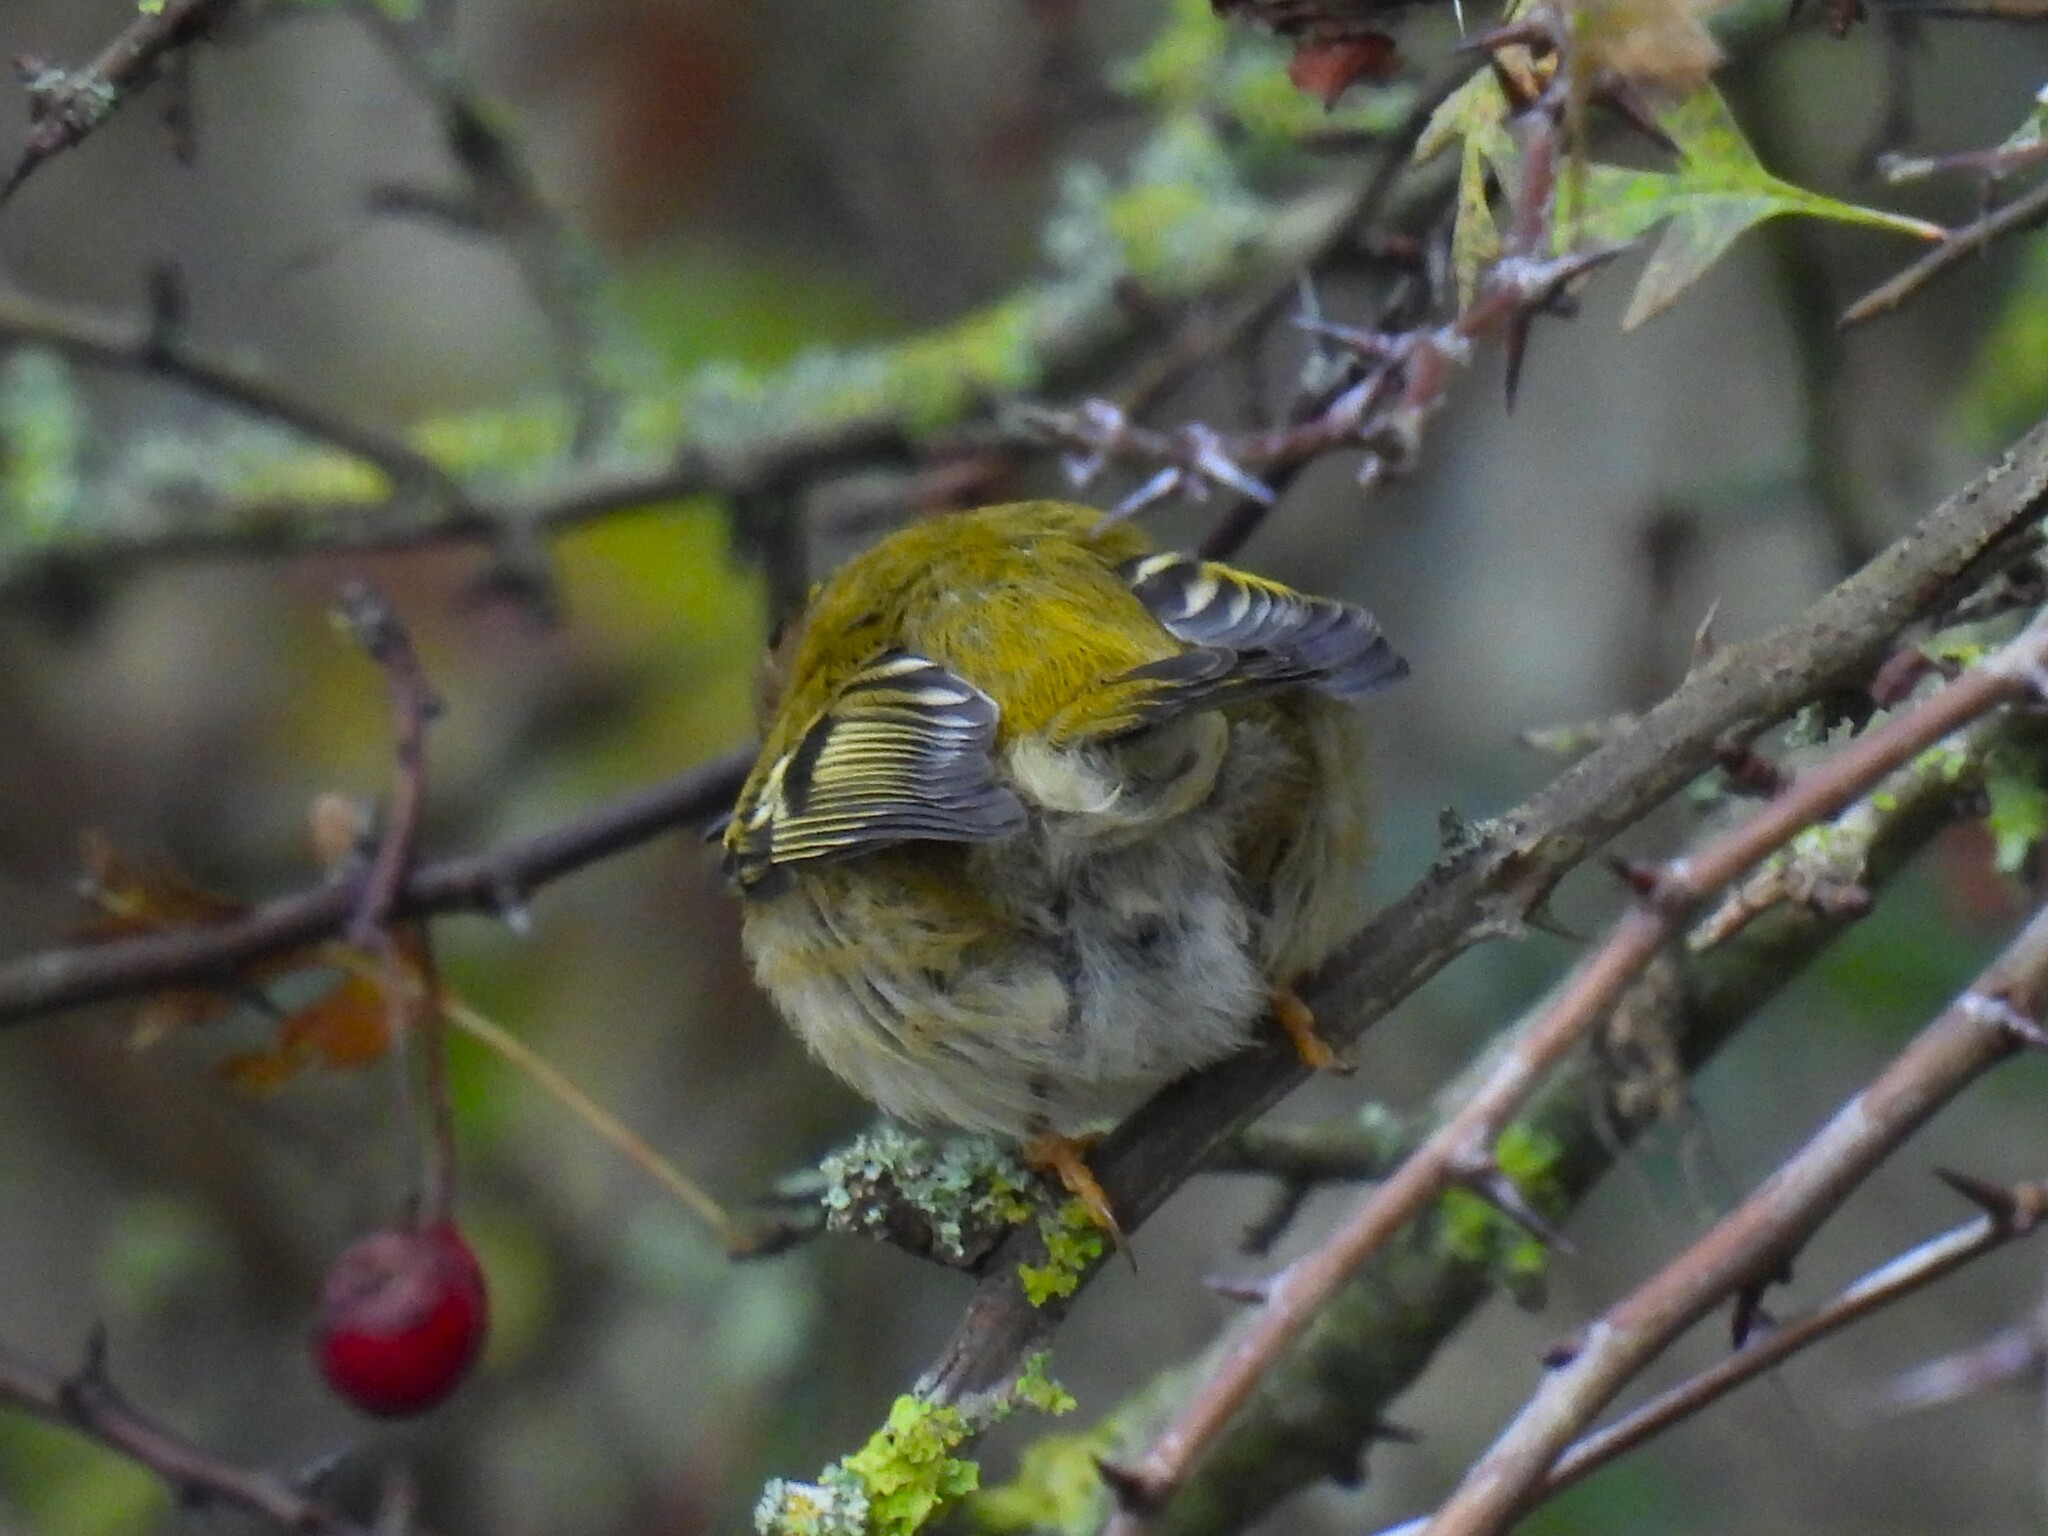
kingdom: Animalia
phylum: Chordata
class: Aves
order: Passeriformes
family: Regulidae
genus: Regulus
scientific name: Regulus regulus
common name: Goldcrest
